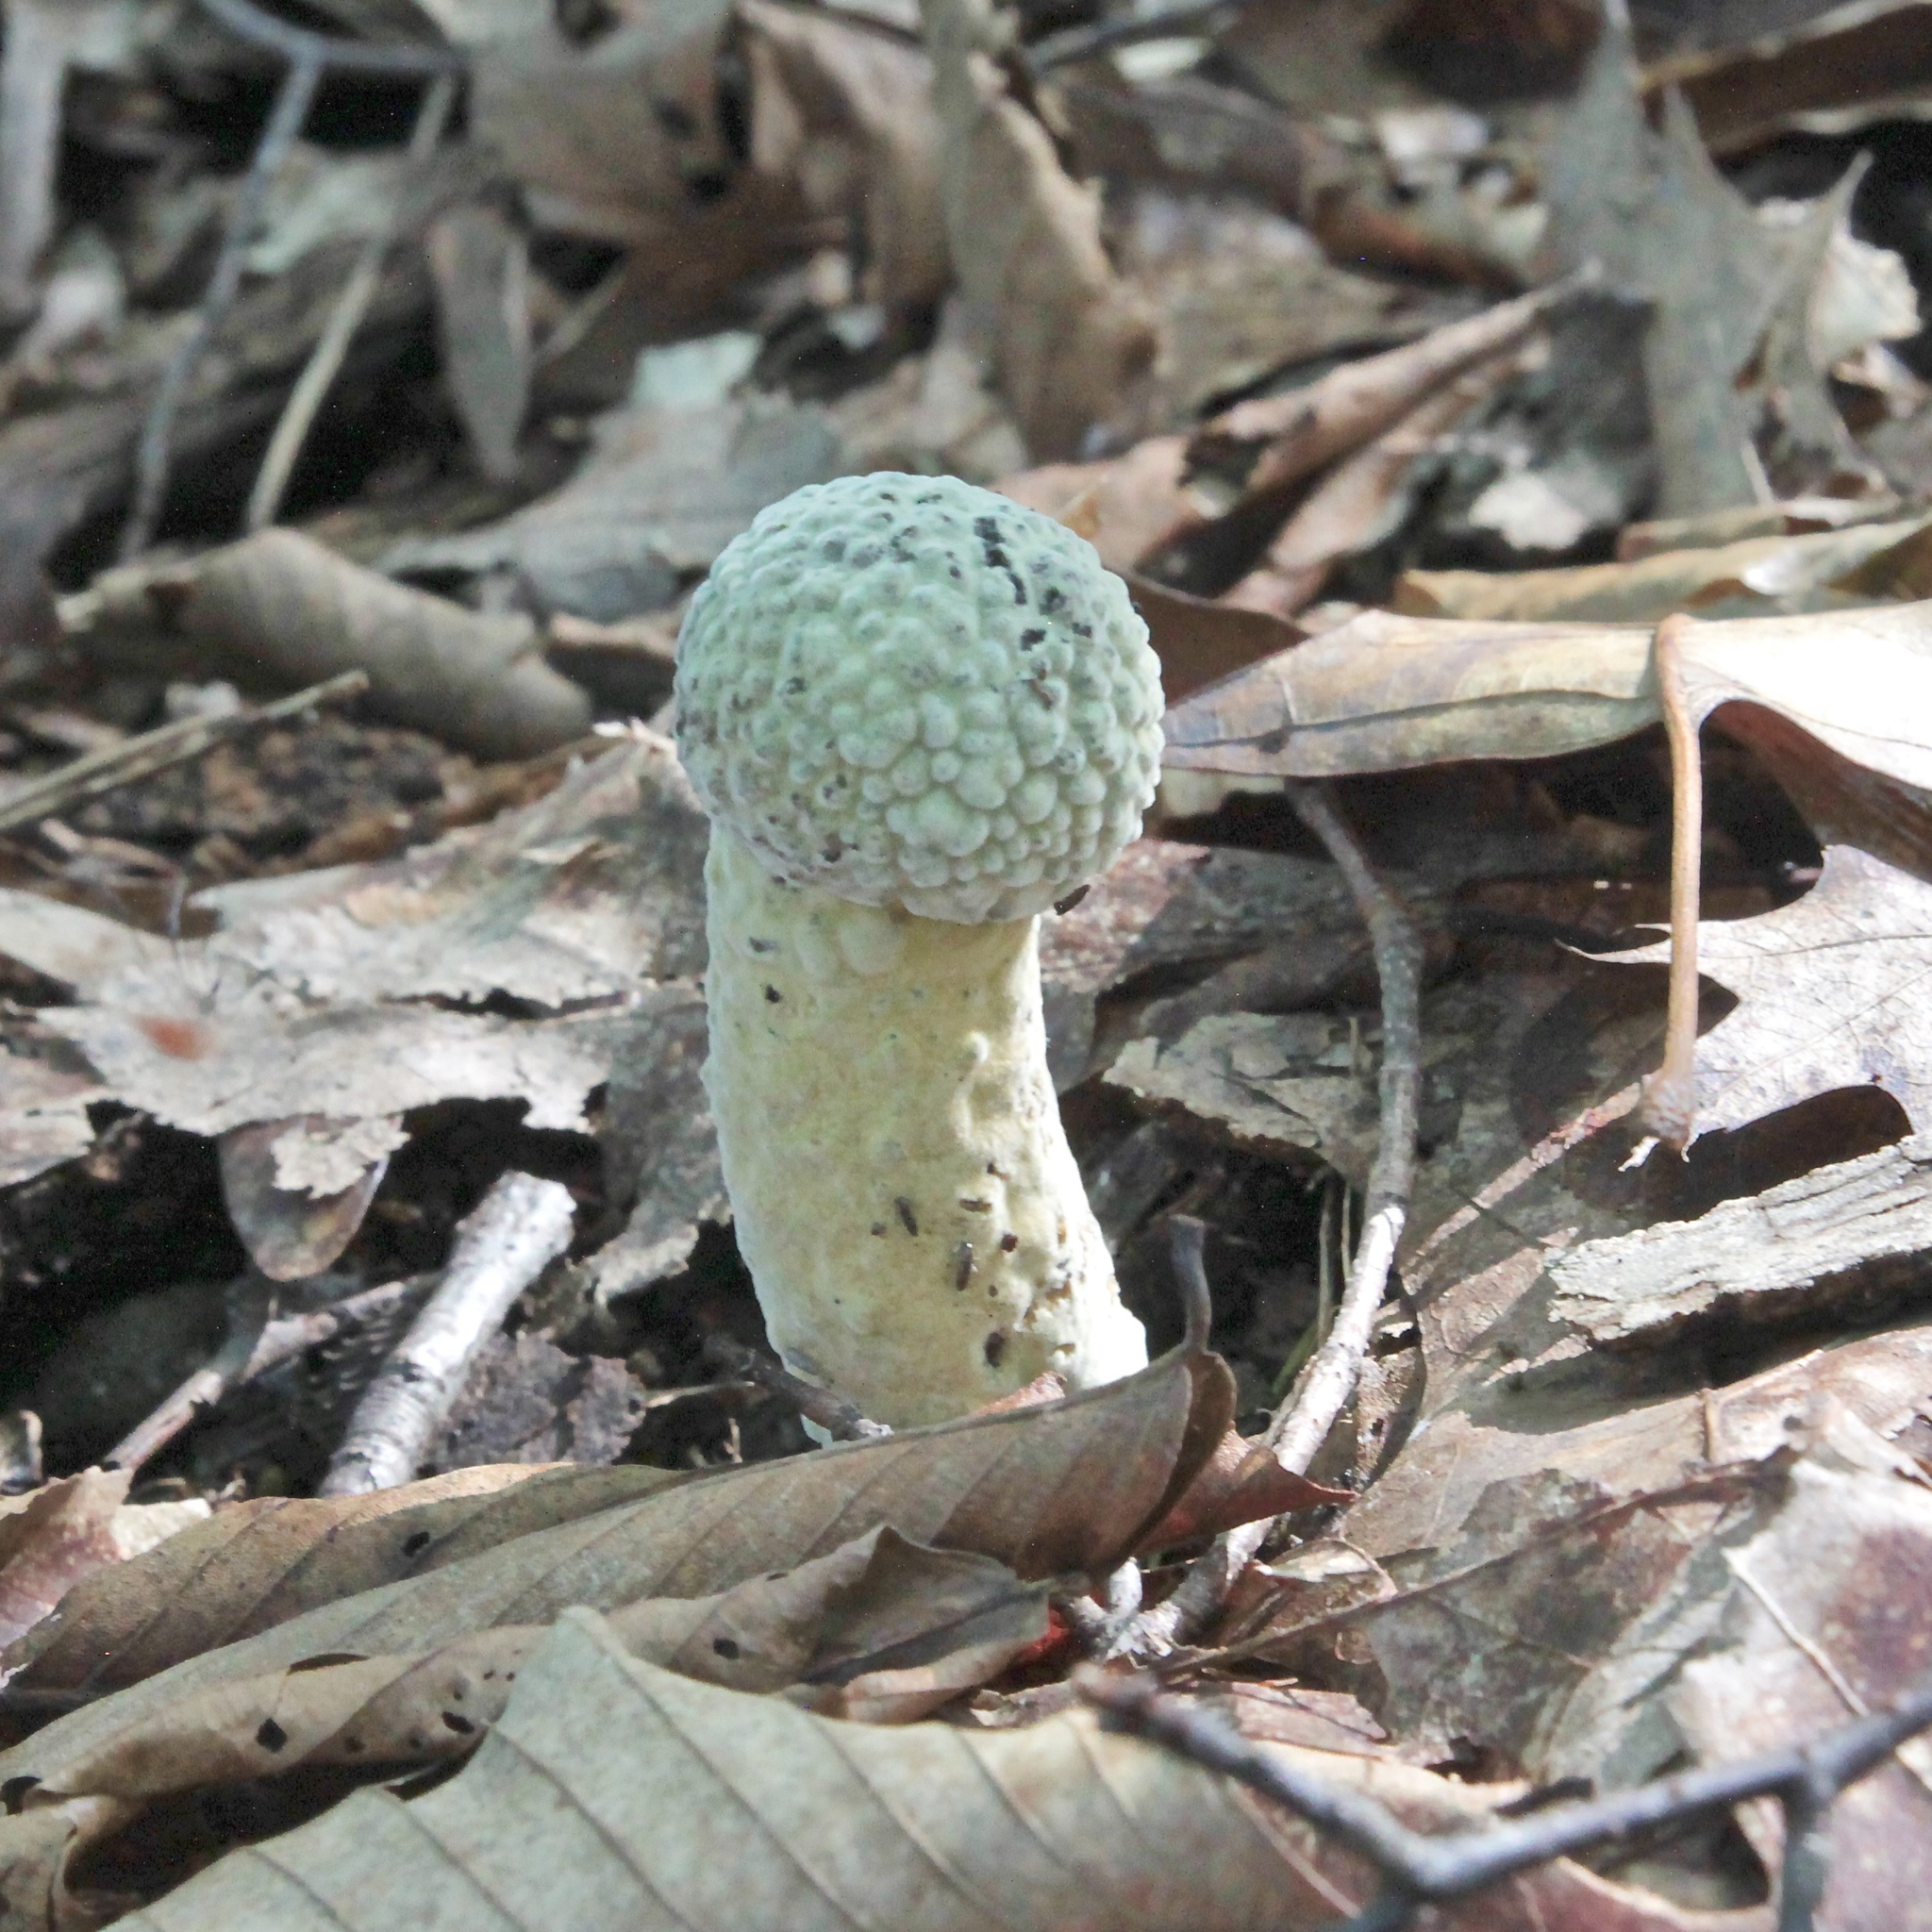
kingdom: Fungi
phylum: Ascomycota
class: Sordariomycetes
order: Hypocreales
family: Hypocreaceae
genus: Hypomyces
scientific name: Hypomyces chrysospermus
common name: Bolete mould
